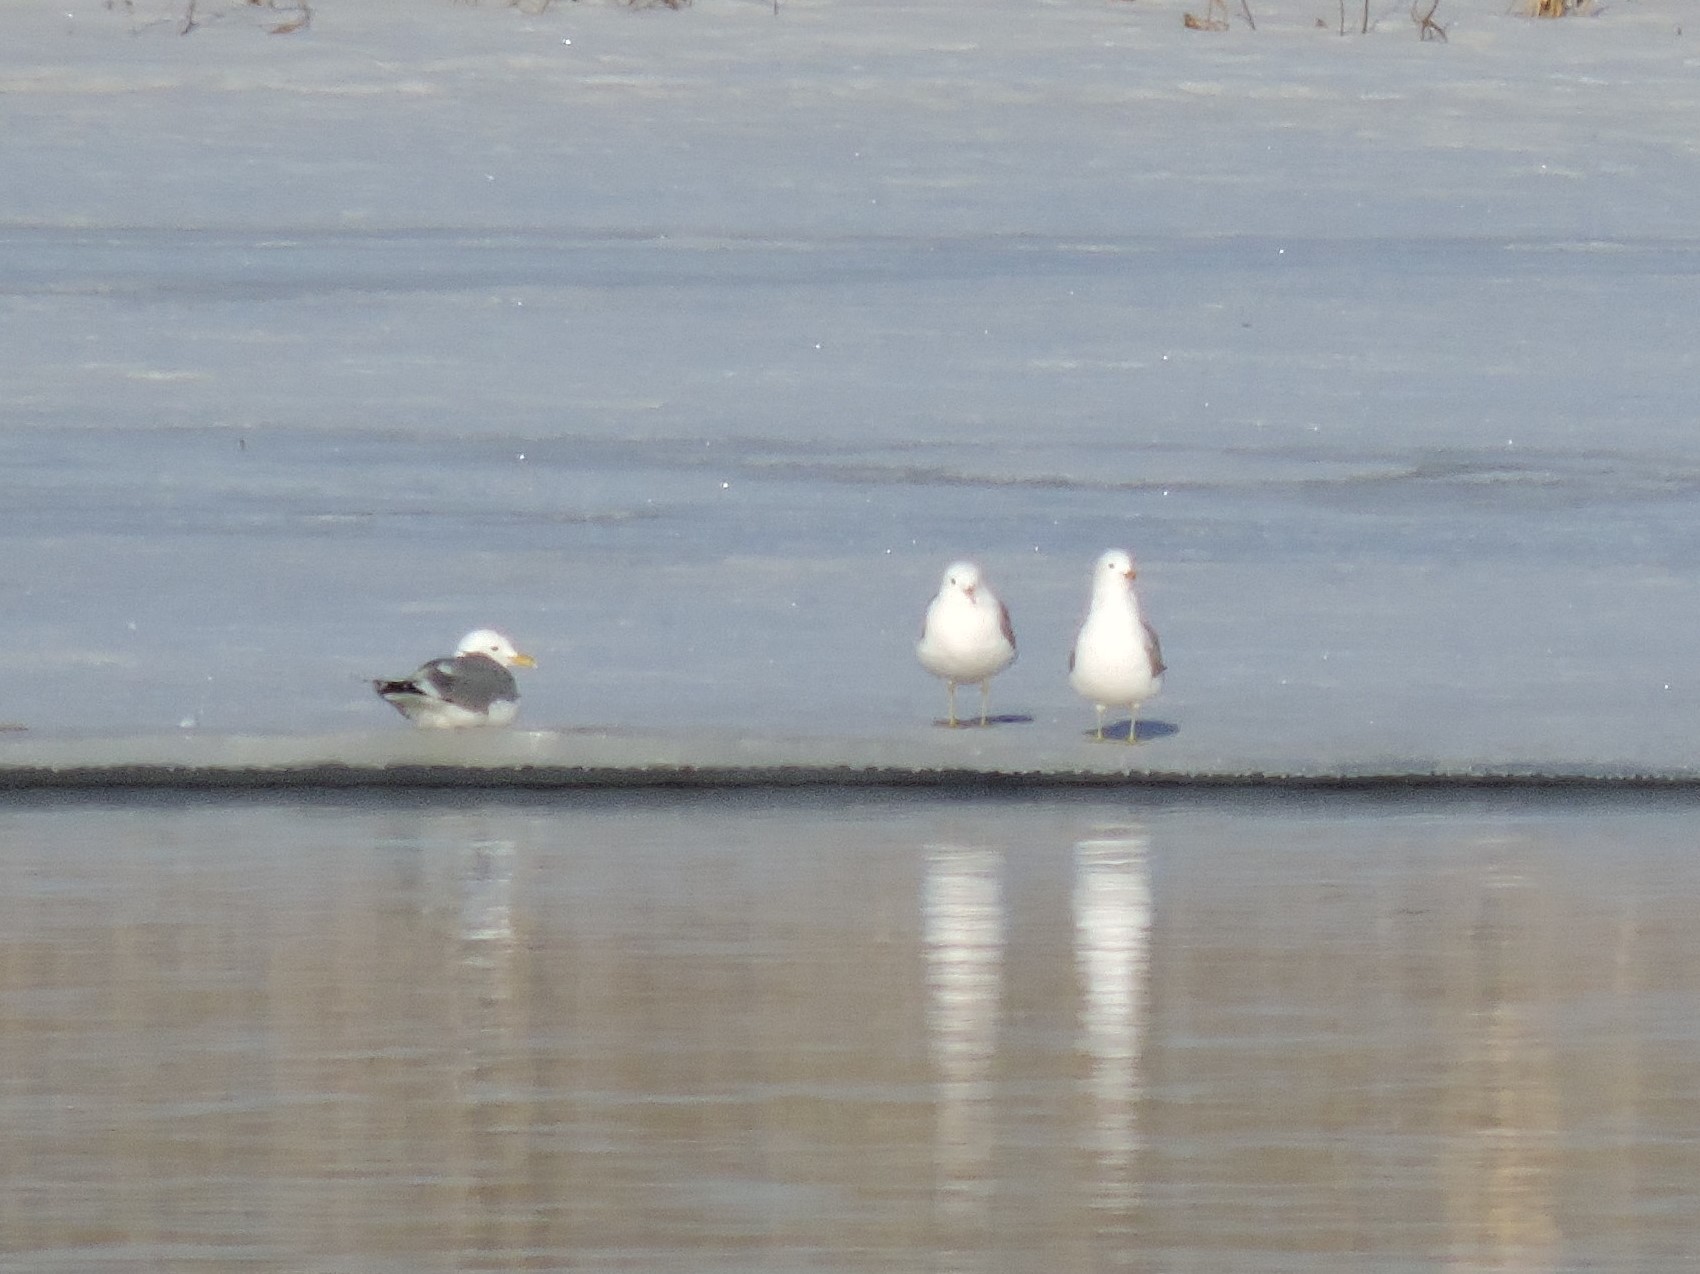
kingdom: Animalia
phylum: Chordata
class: Aves
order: Charadriiformes
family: Laridae
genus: Larus
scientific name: Larus canus
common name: Mew gull
